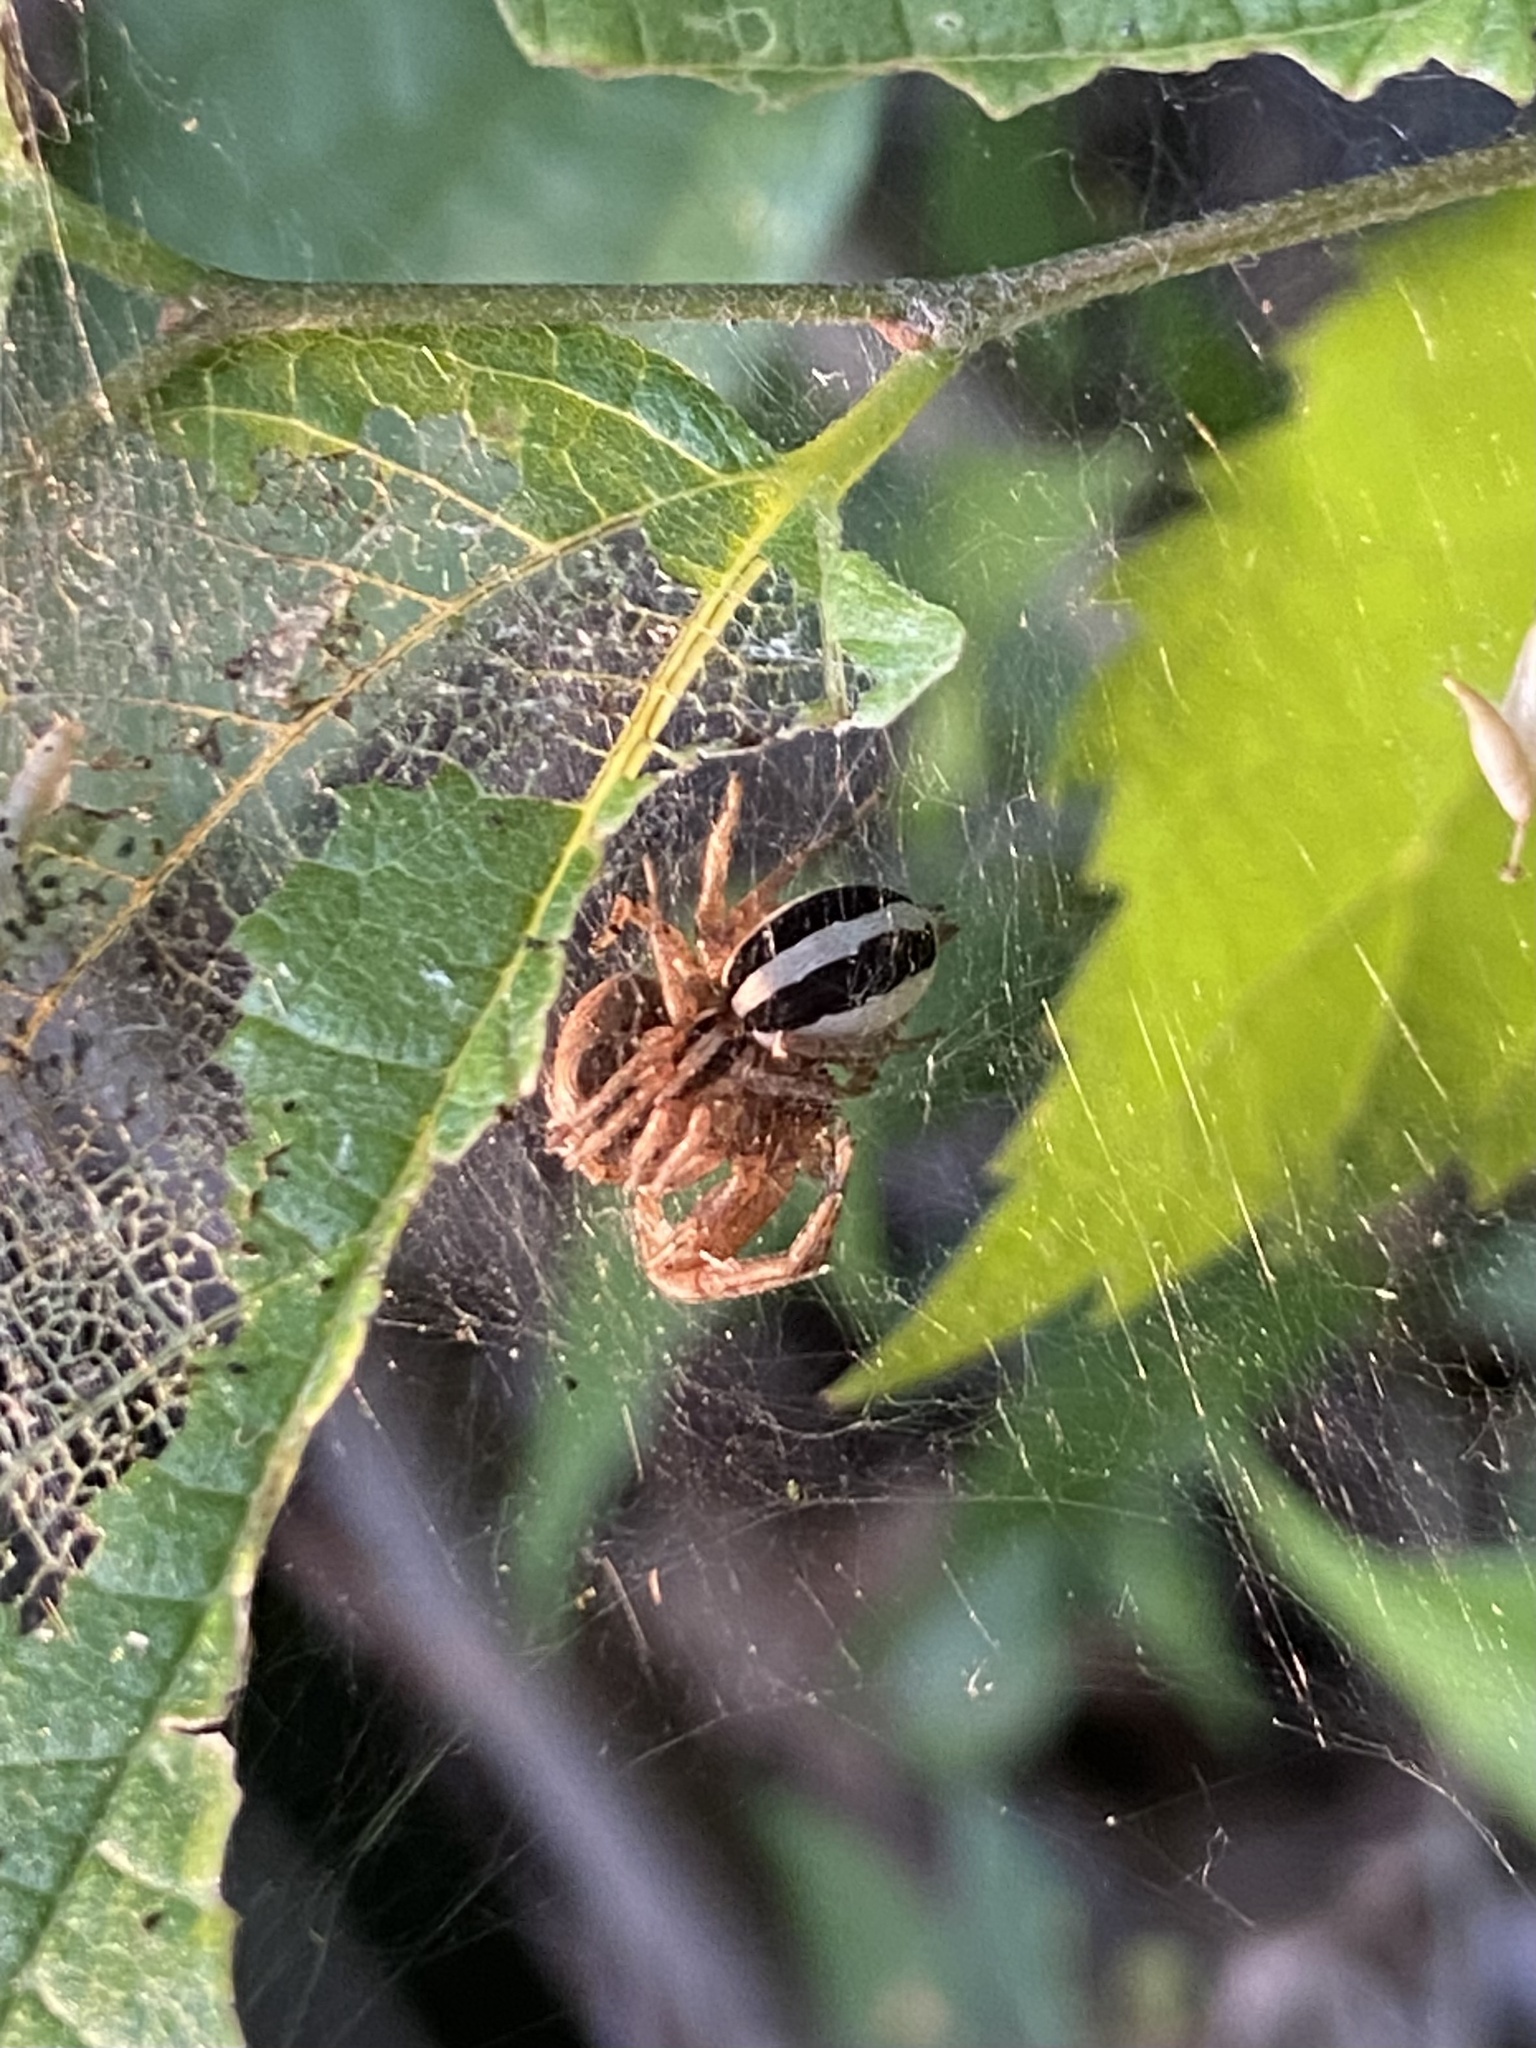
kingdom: Animalia
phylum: Arthropoda
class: Arachnida
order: Araneae
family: Gnaphosidae
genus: Cesonia
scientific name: Cesonia bilineata
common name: Two-lined stealthy ground spider
